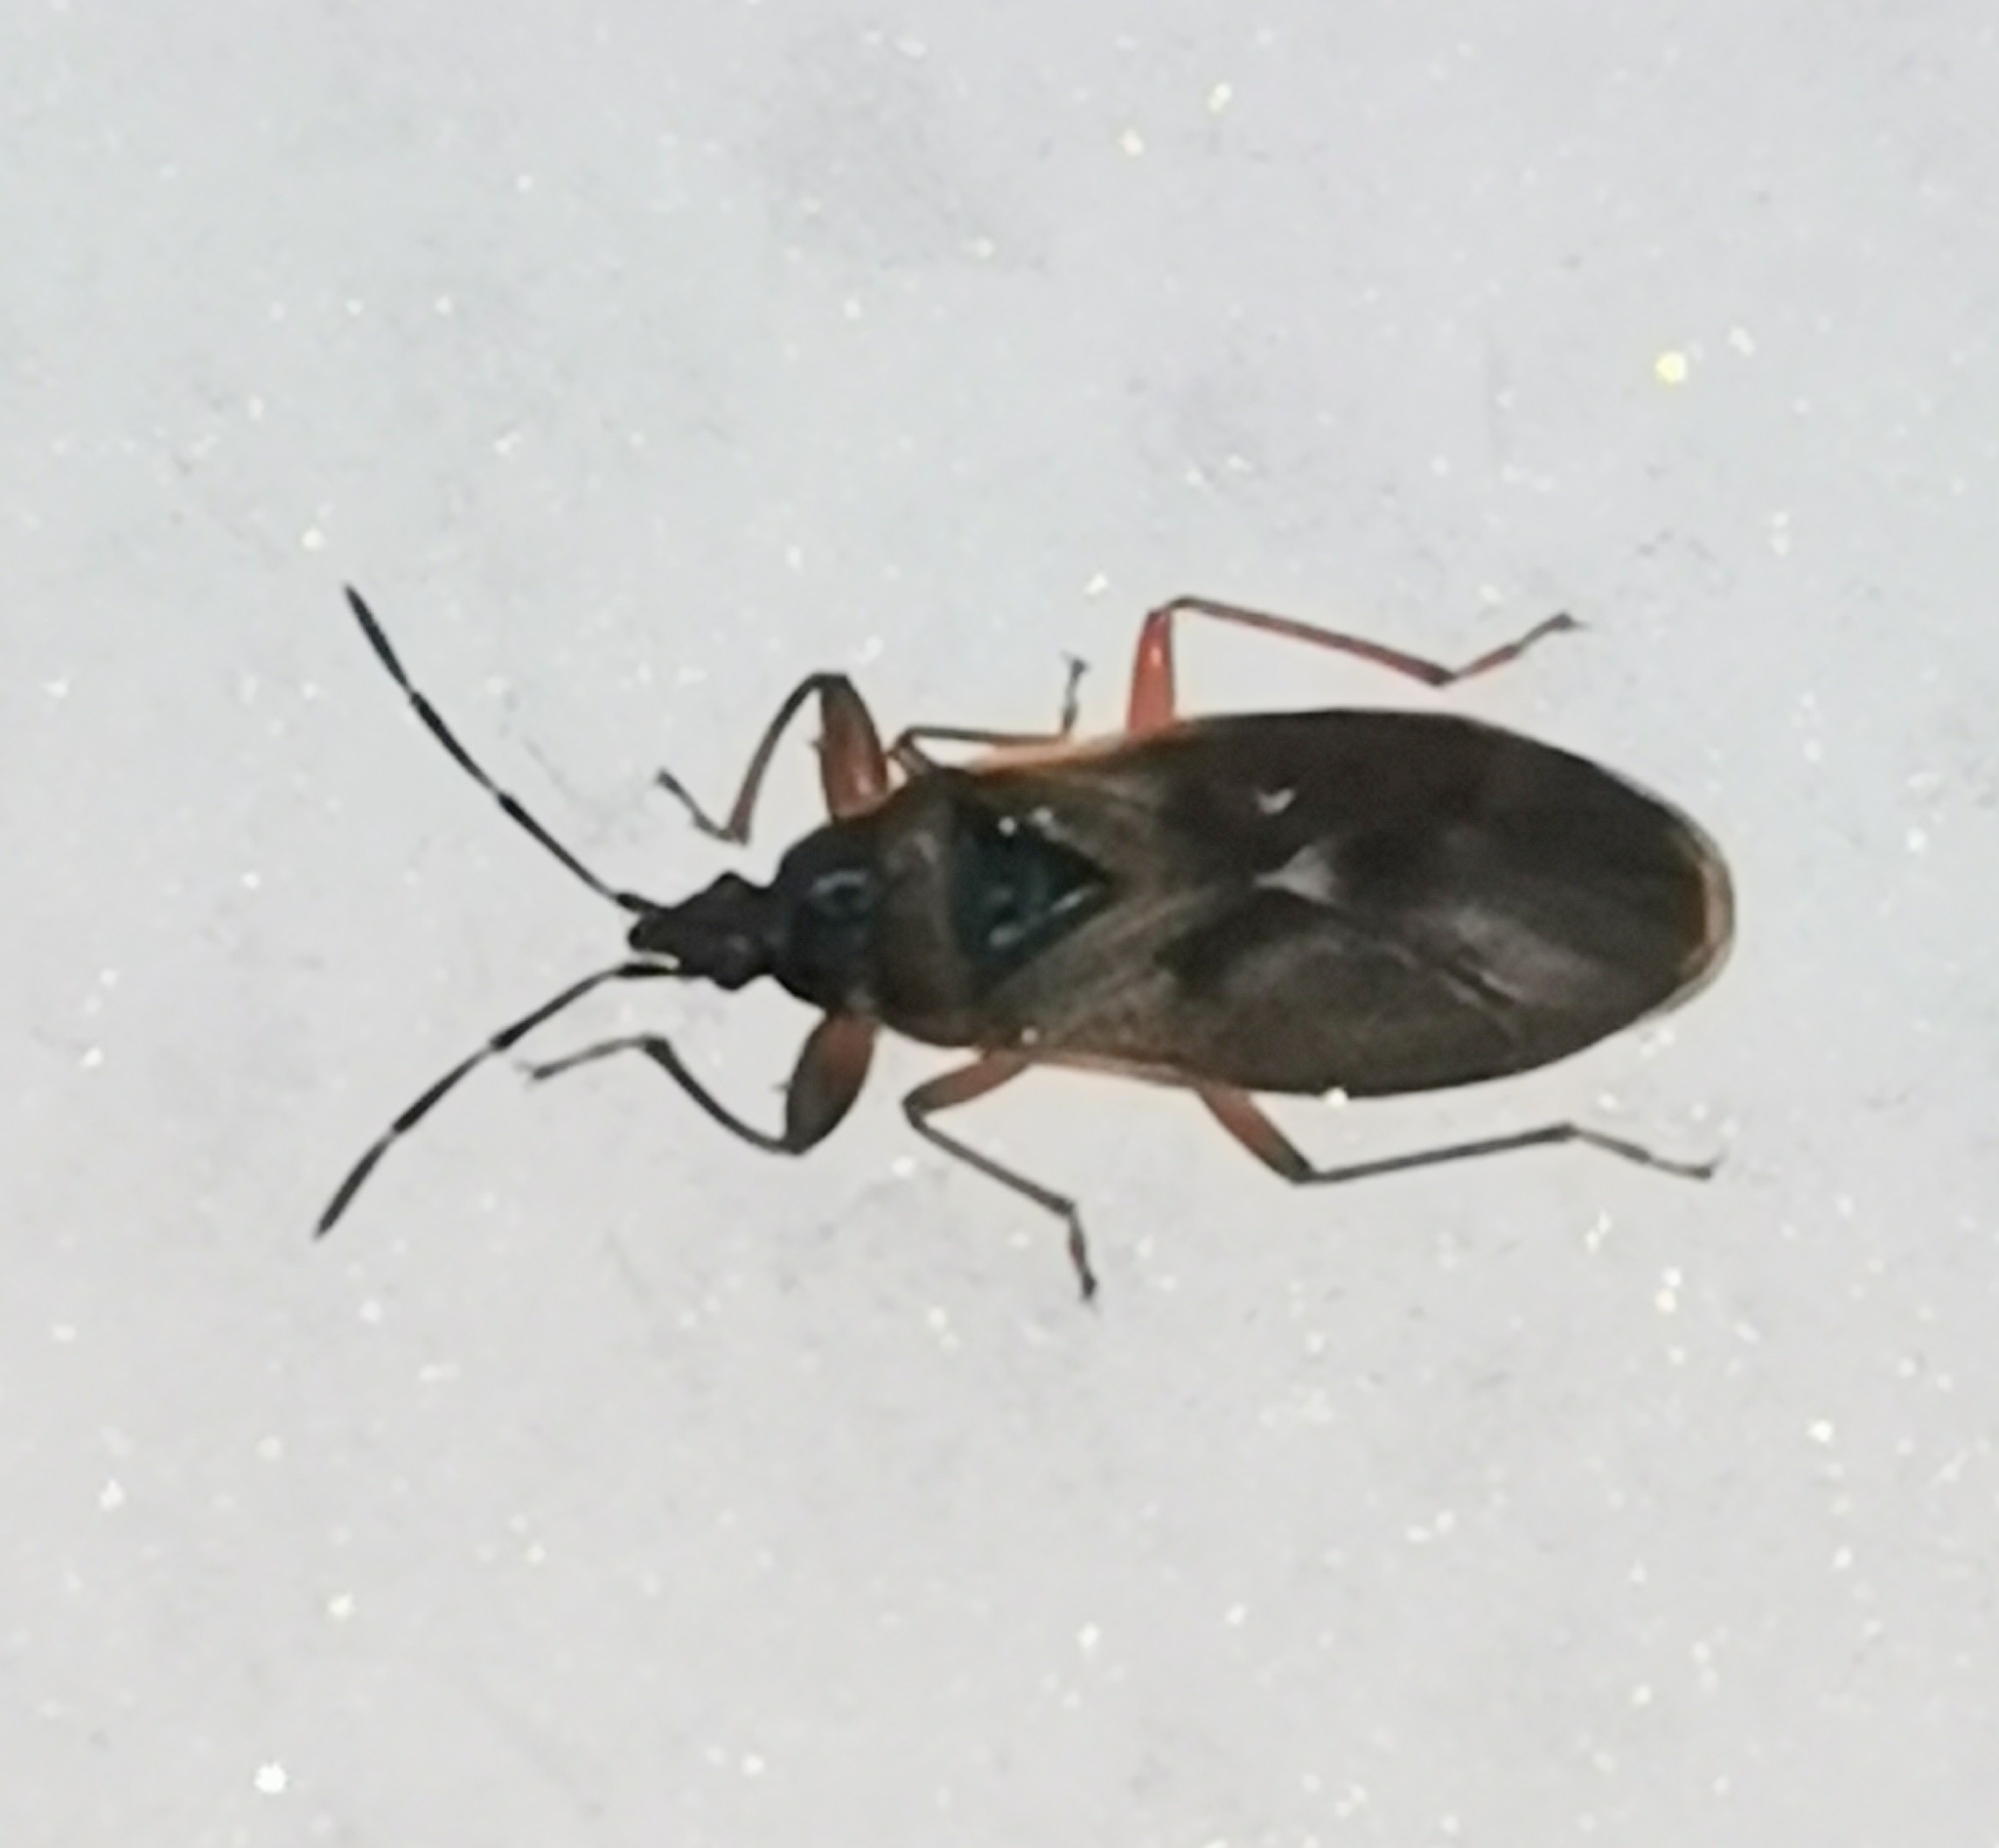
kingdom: Animalia
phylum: Arthropoda
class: Insecta
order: Hemiptera
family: Rhyparochromidae
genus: Gastrodes
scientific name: Gastrodes abietum
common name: Spruce cone bug
